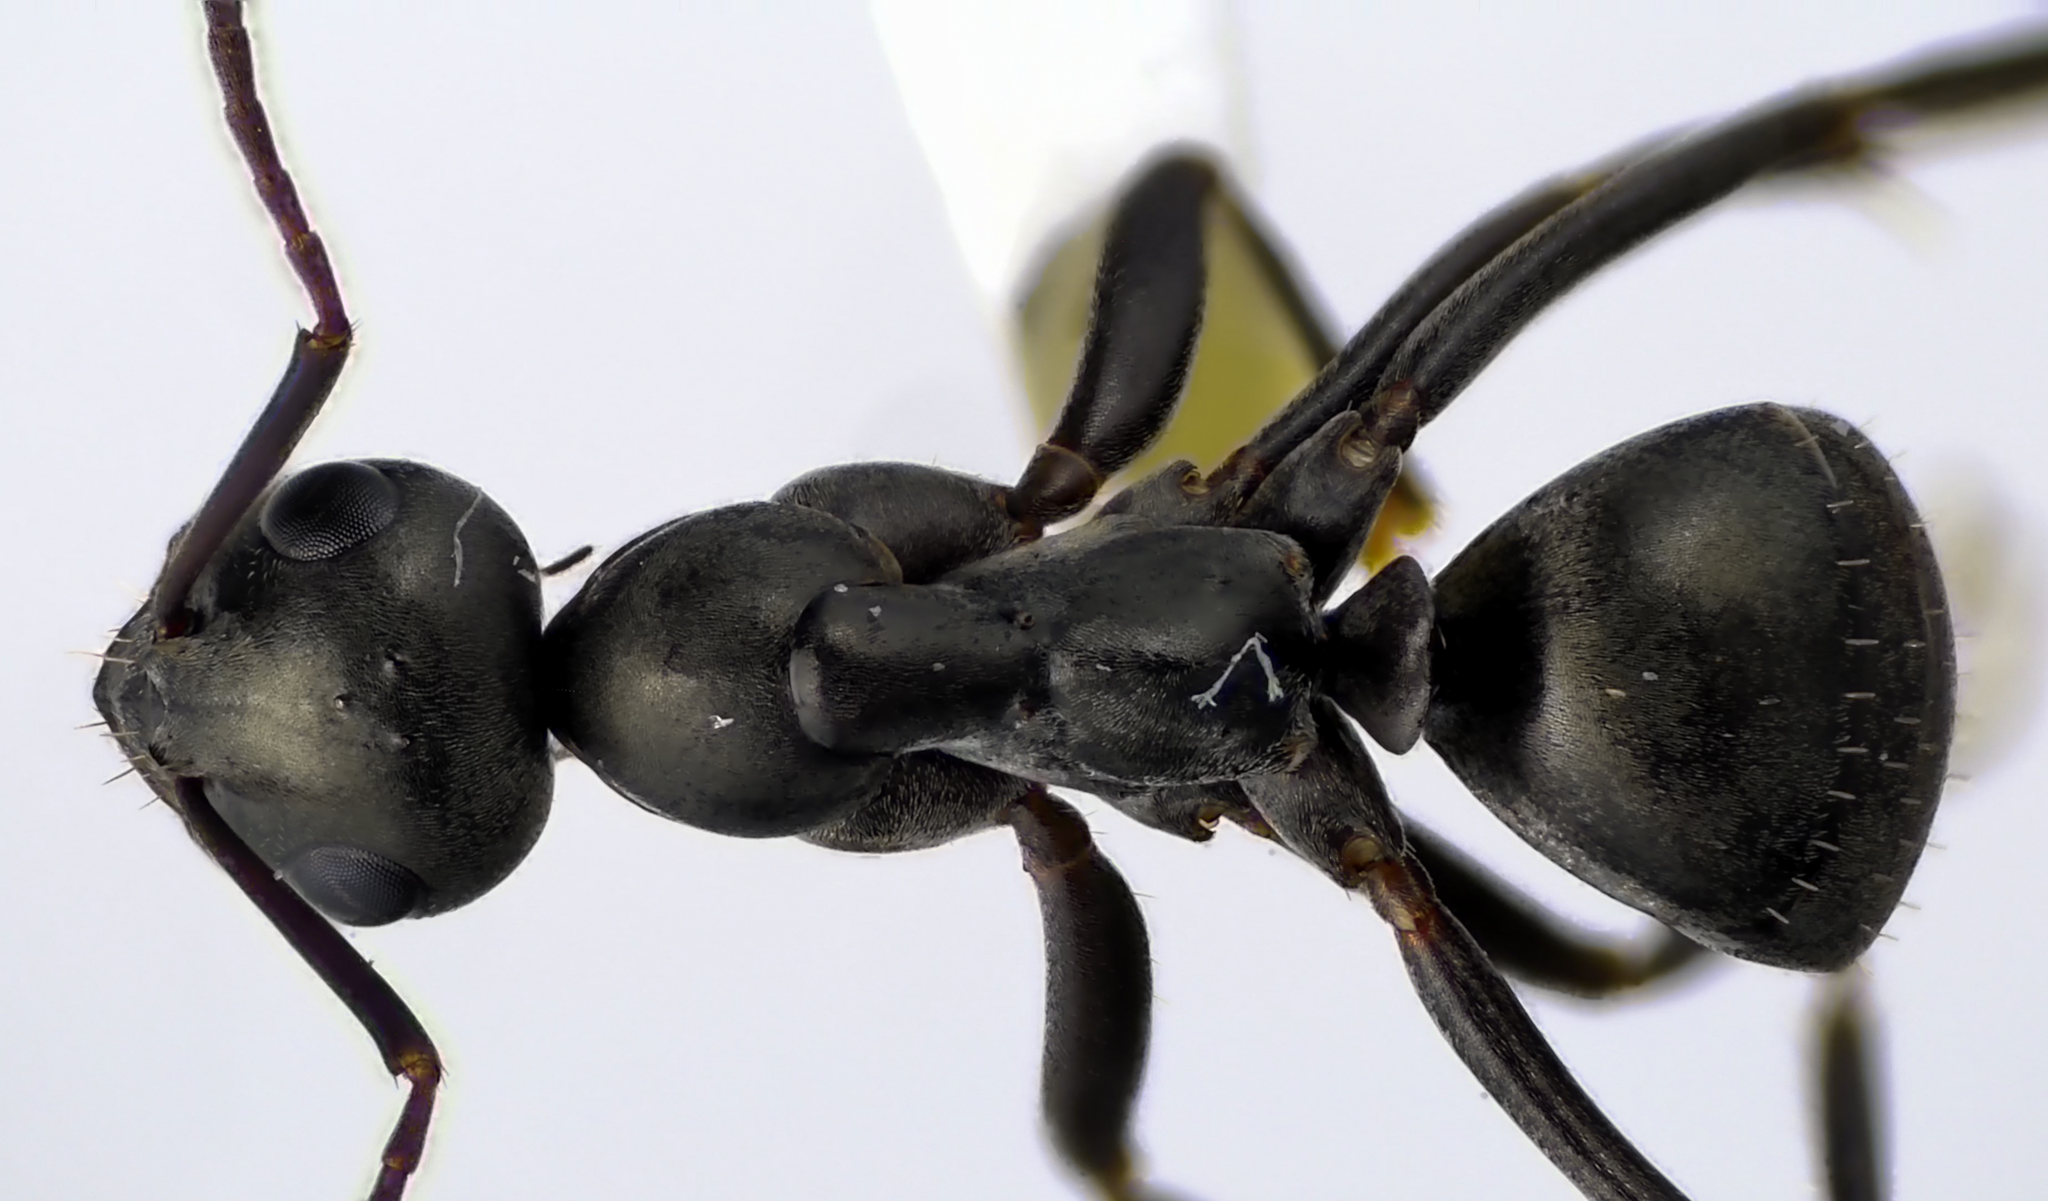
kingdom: Animalia
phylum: Arthropoda
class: Insecta
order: Hymenoptera
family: Formicidae
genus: Formica
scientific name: Formica subsericea
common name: Silky field ant
